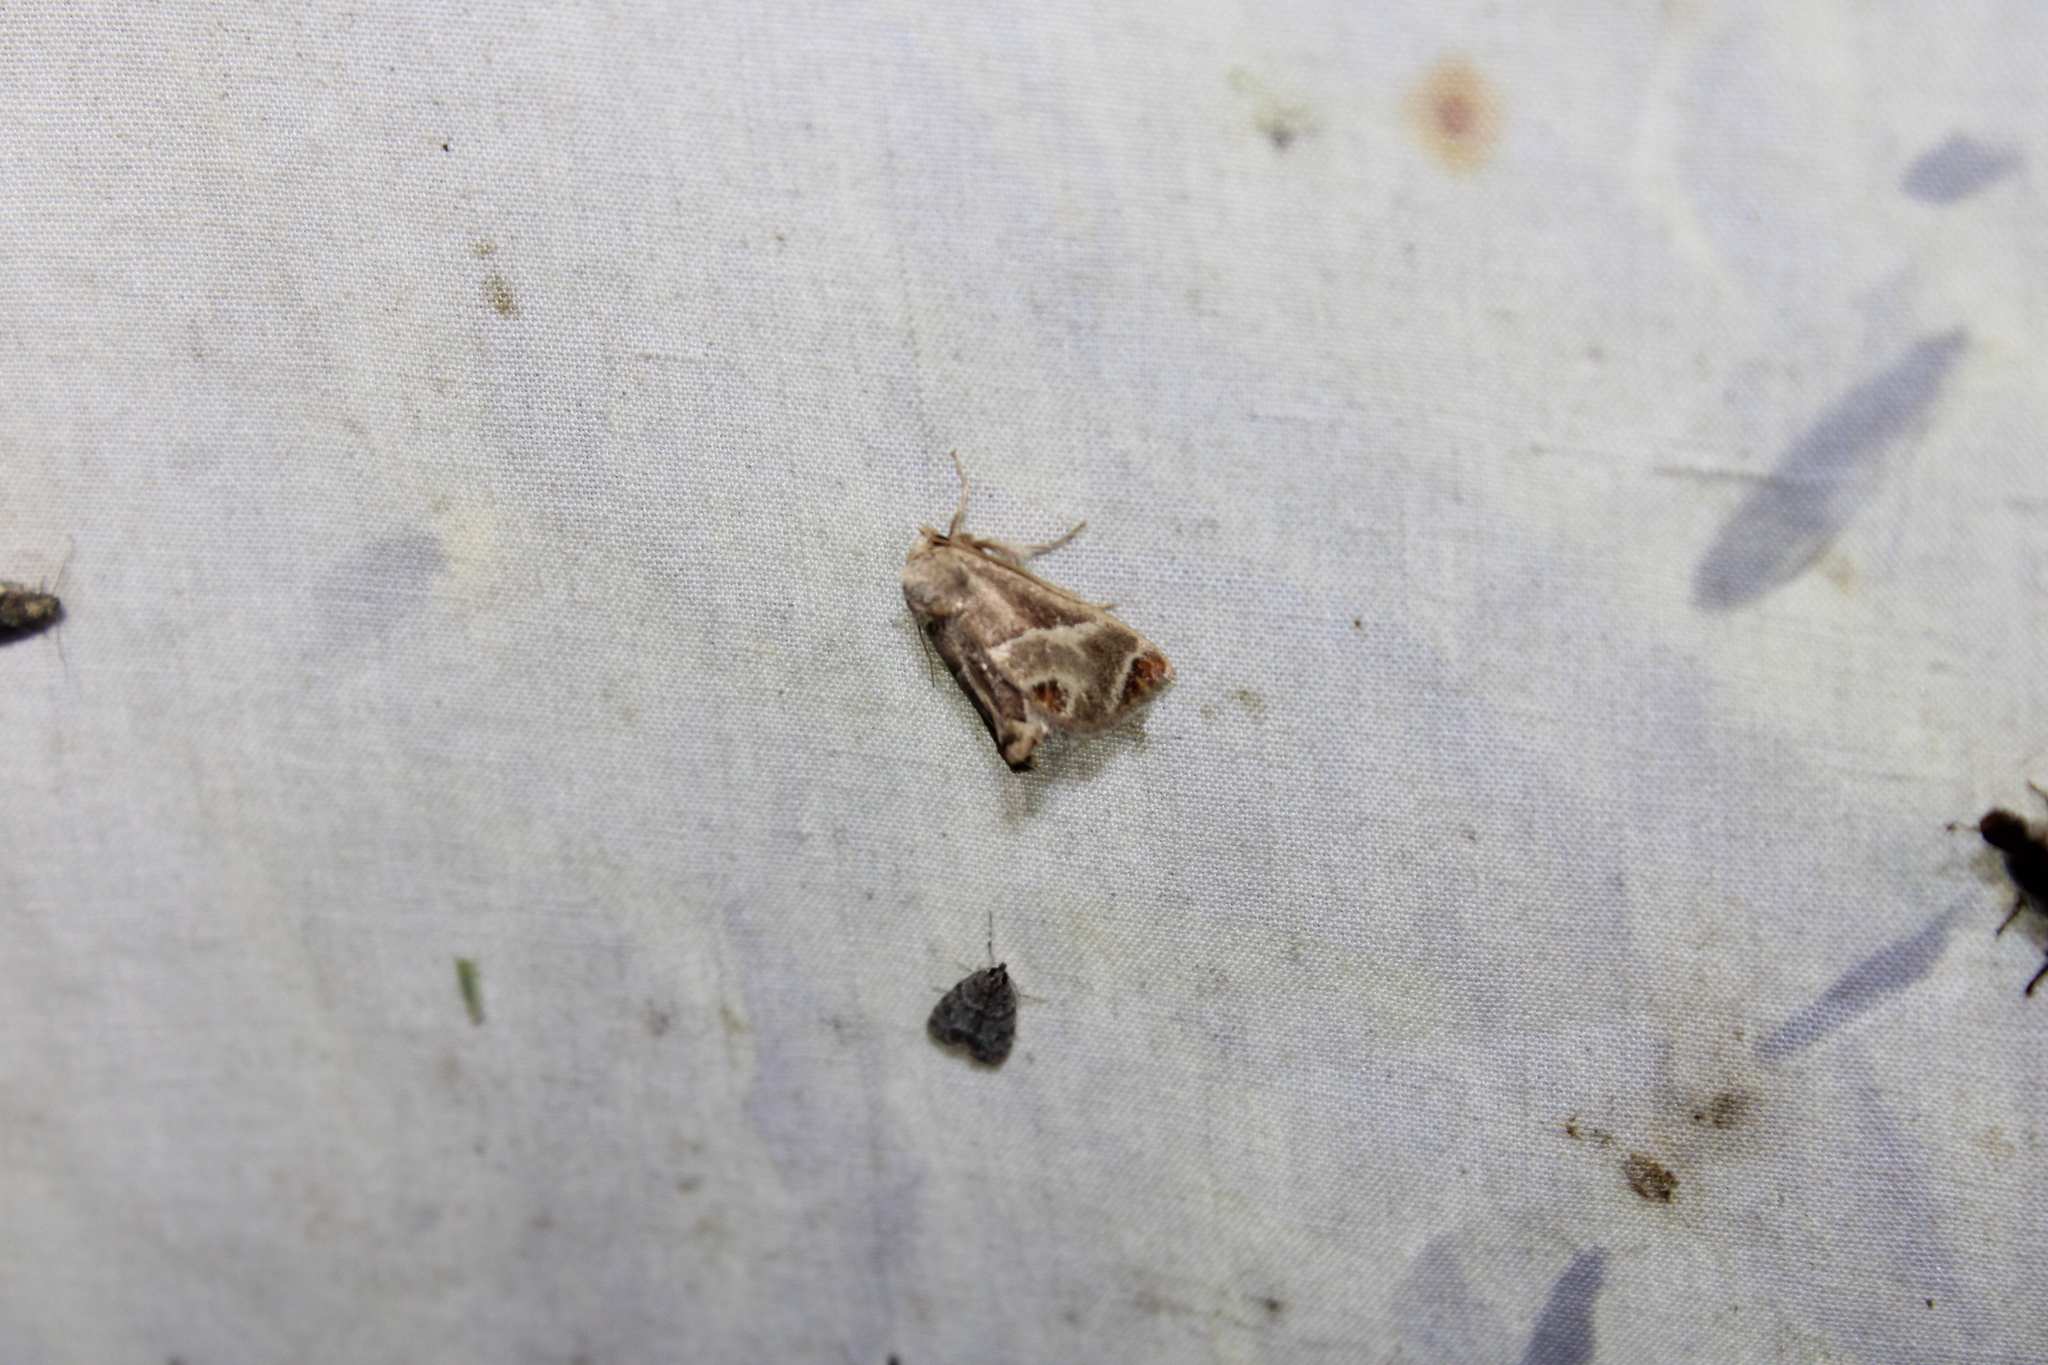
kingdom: Animalia
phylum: Arthropoda
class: Insecta
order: Lepidoptera
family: Limacodidae
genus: Apoda
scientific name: Apoda biguttata
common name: Shagreened slug moth
